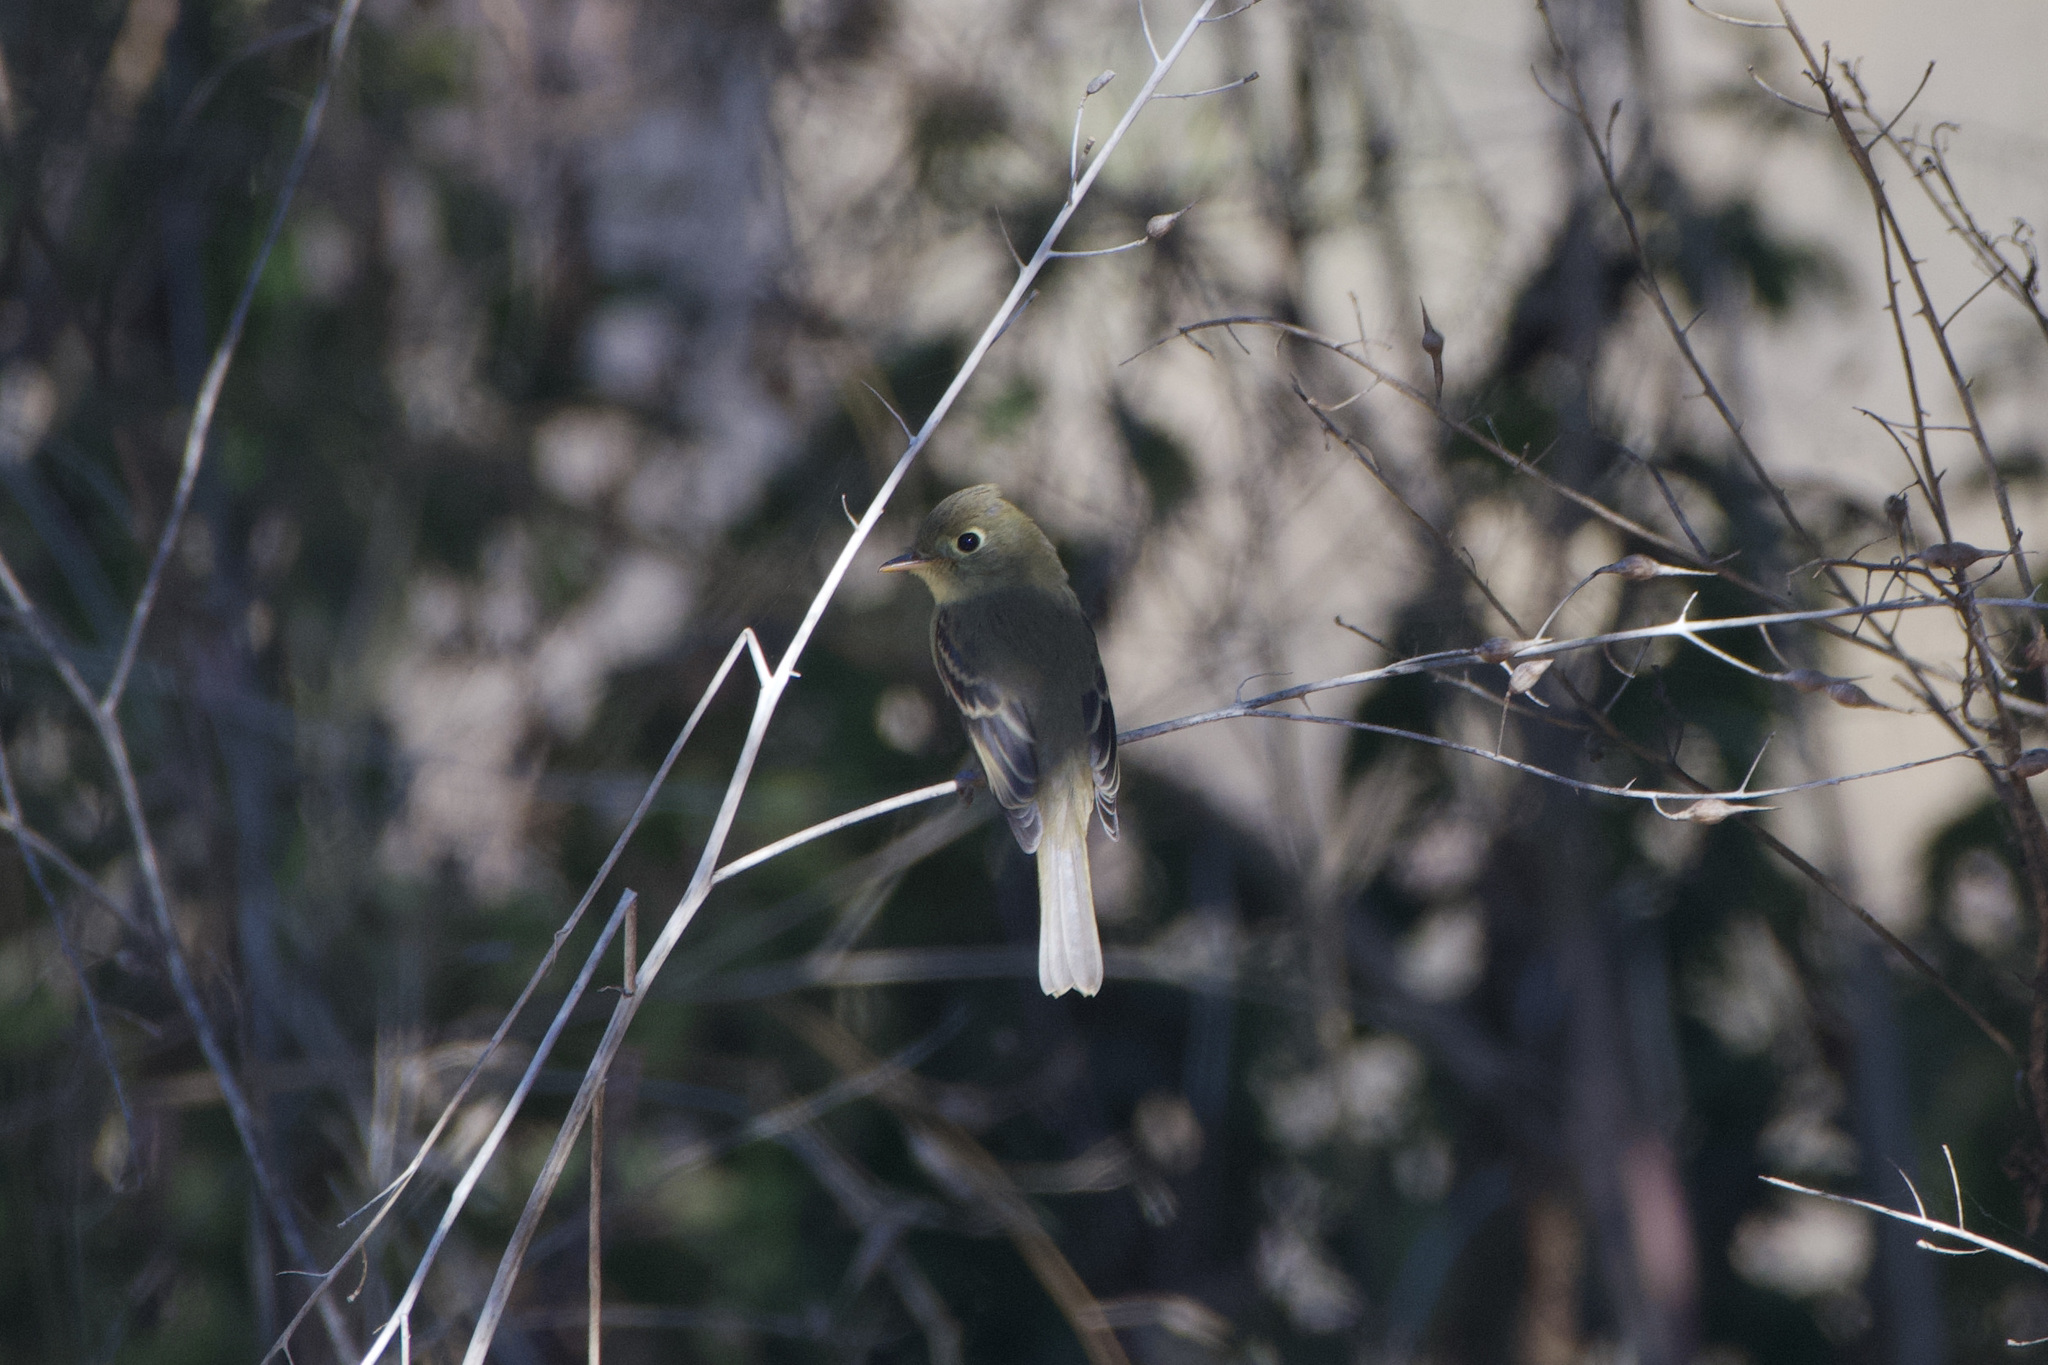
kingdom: Animalia
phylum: Chordata
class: Aves
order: Passeriformes
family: Tyrannidae
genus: Empidonax
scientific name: Empidonax difficilis
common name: Pacific-slope flycatcher
